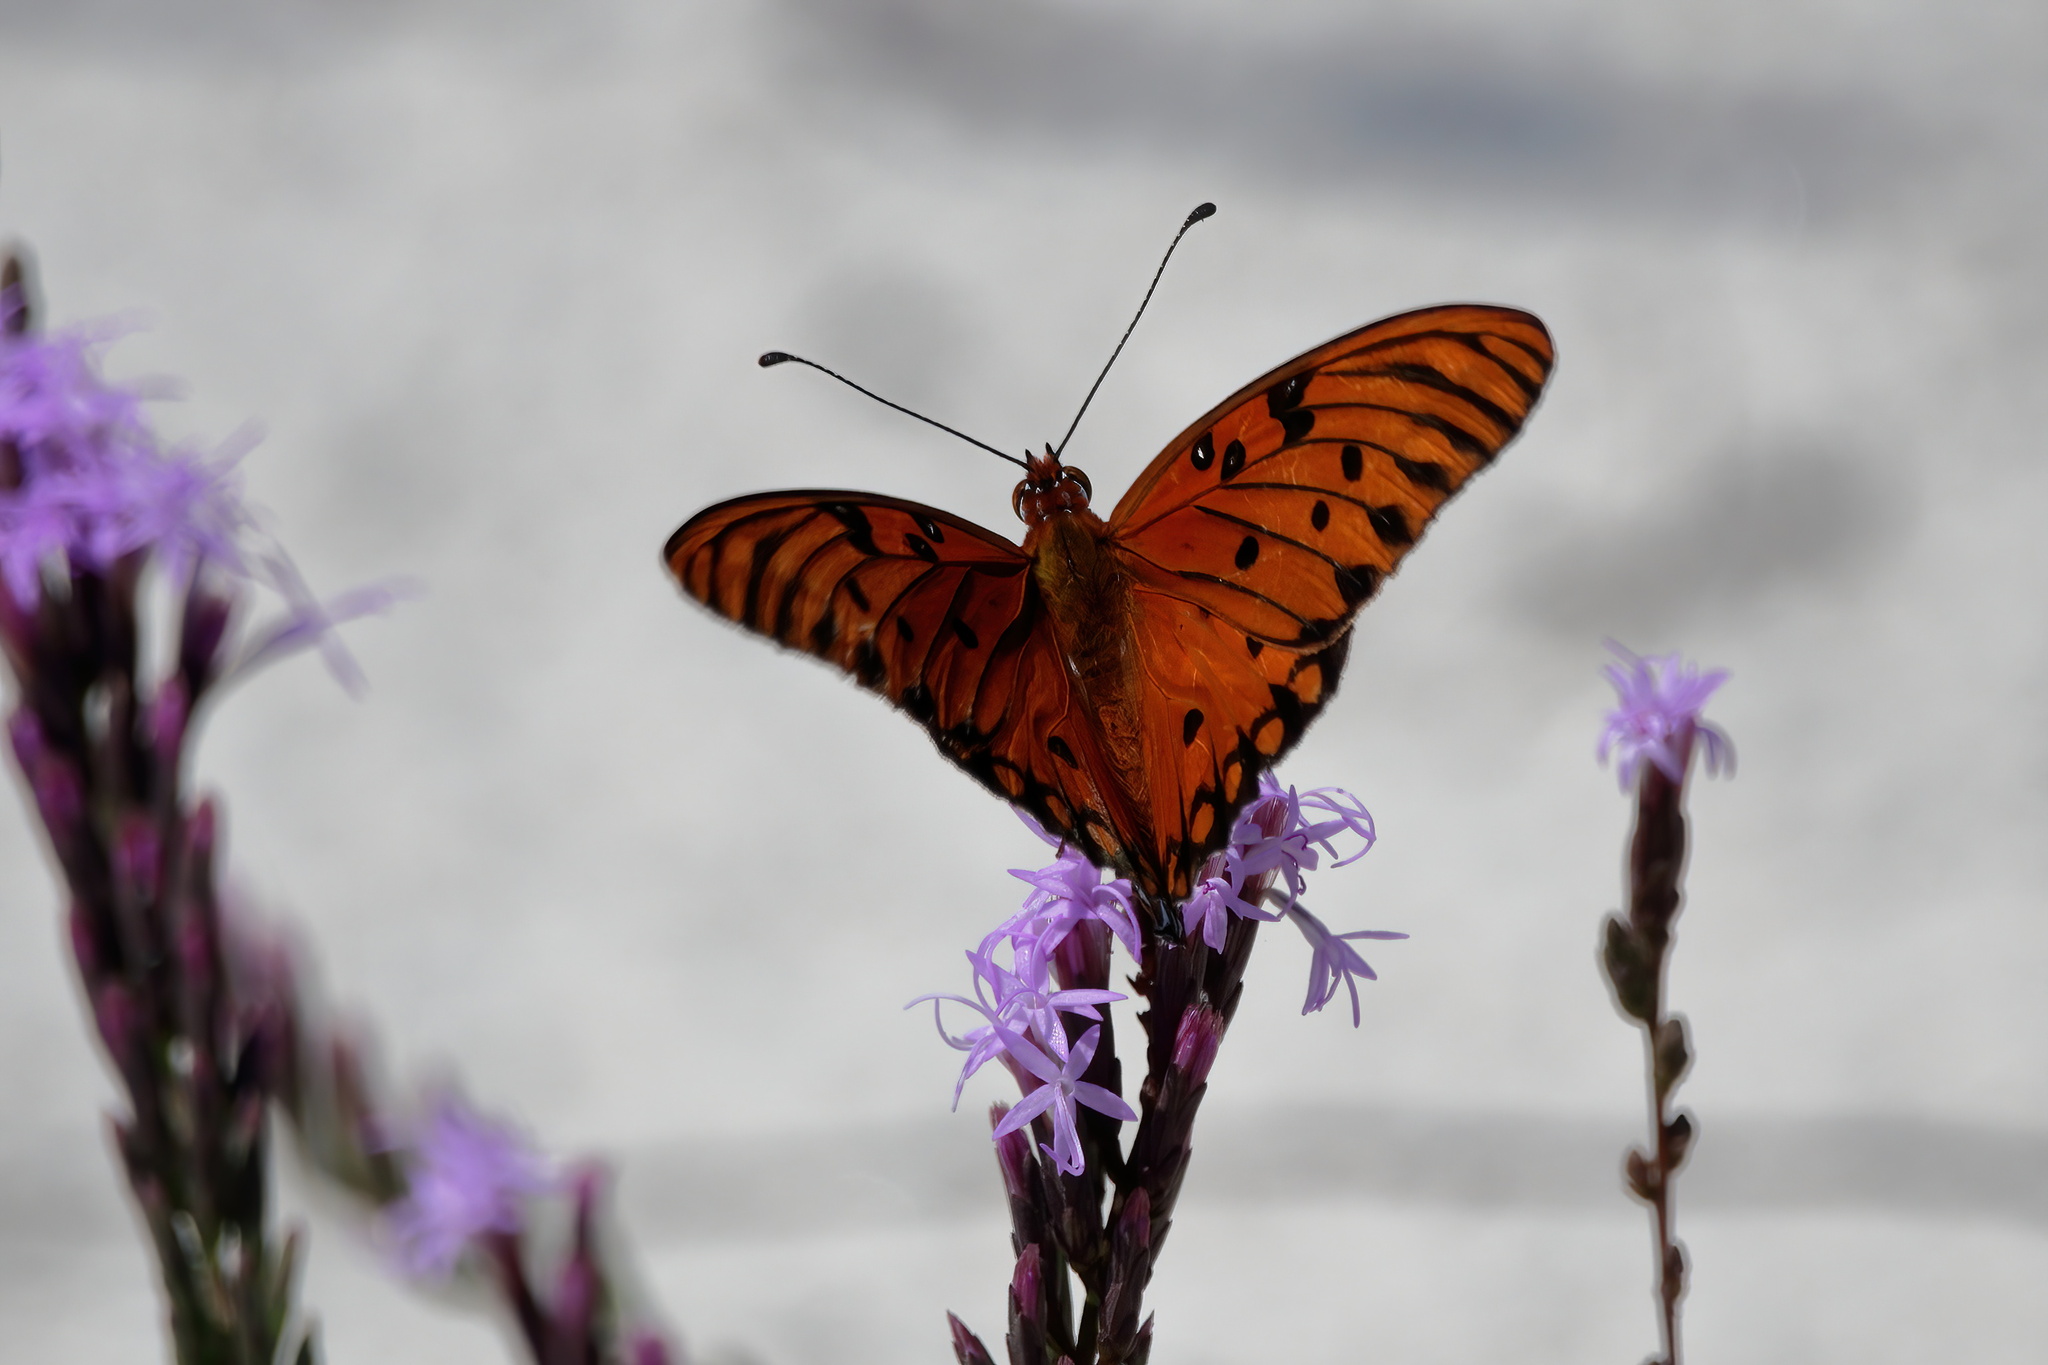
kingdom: Animalia
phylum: Arthropoda
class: Insecta
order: Lepidoptera
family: Nymphalidae
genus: Dione
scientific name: Dione vanillae
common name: Gulf fritillary
